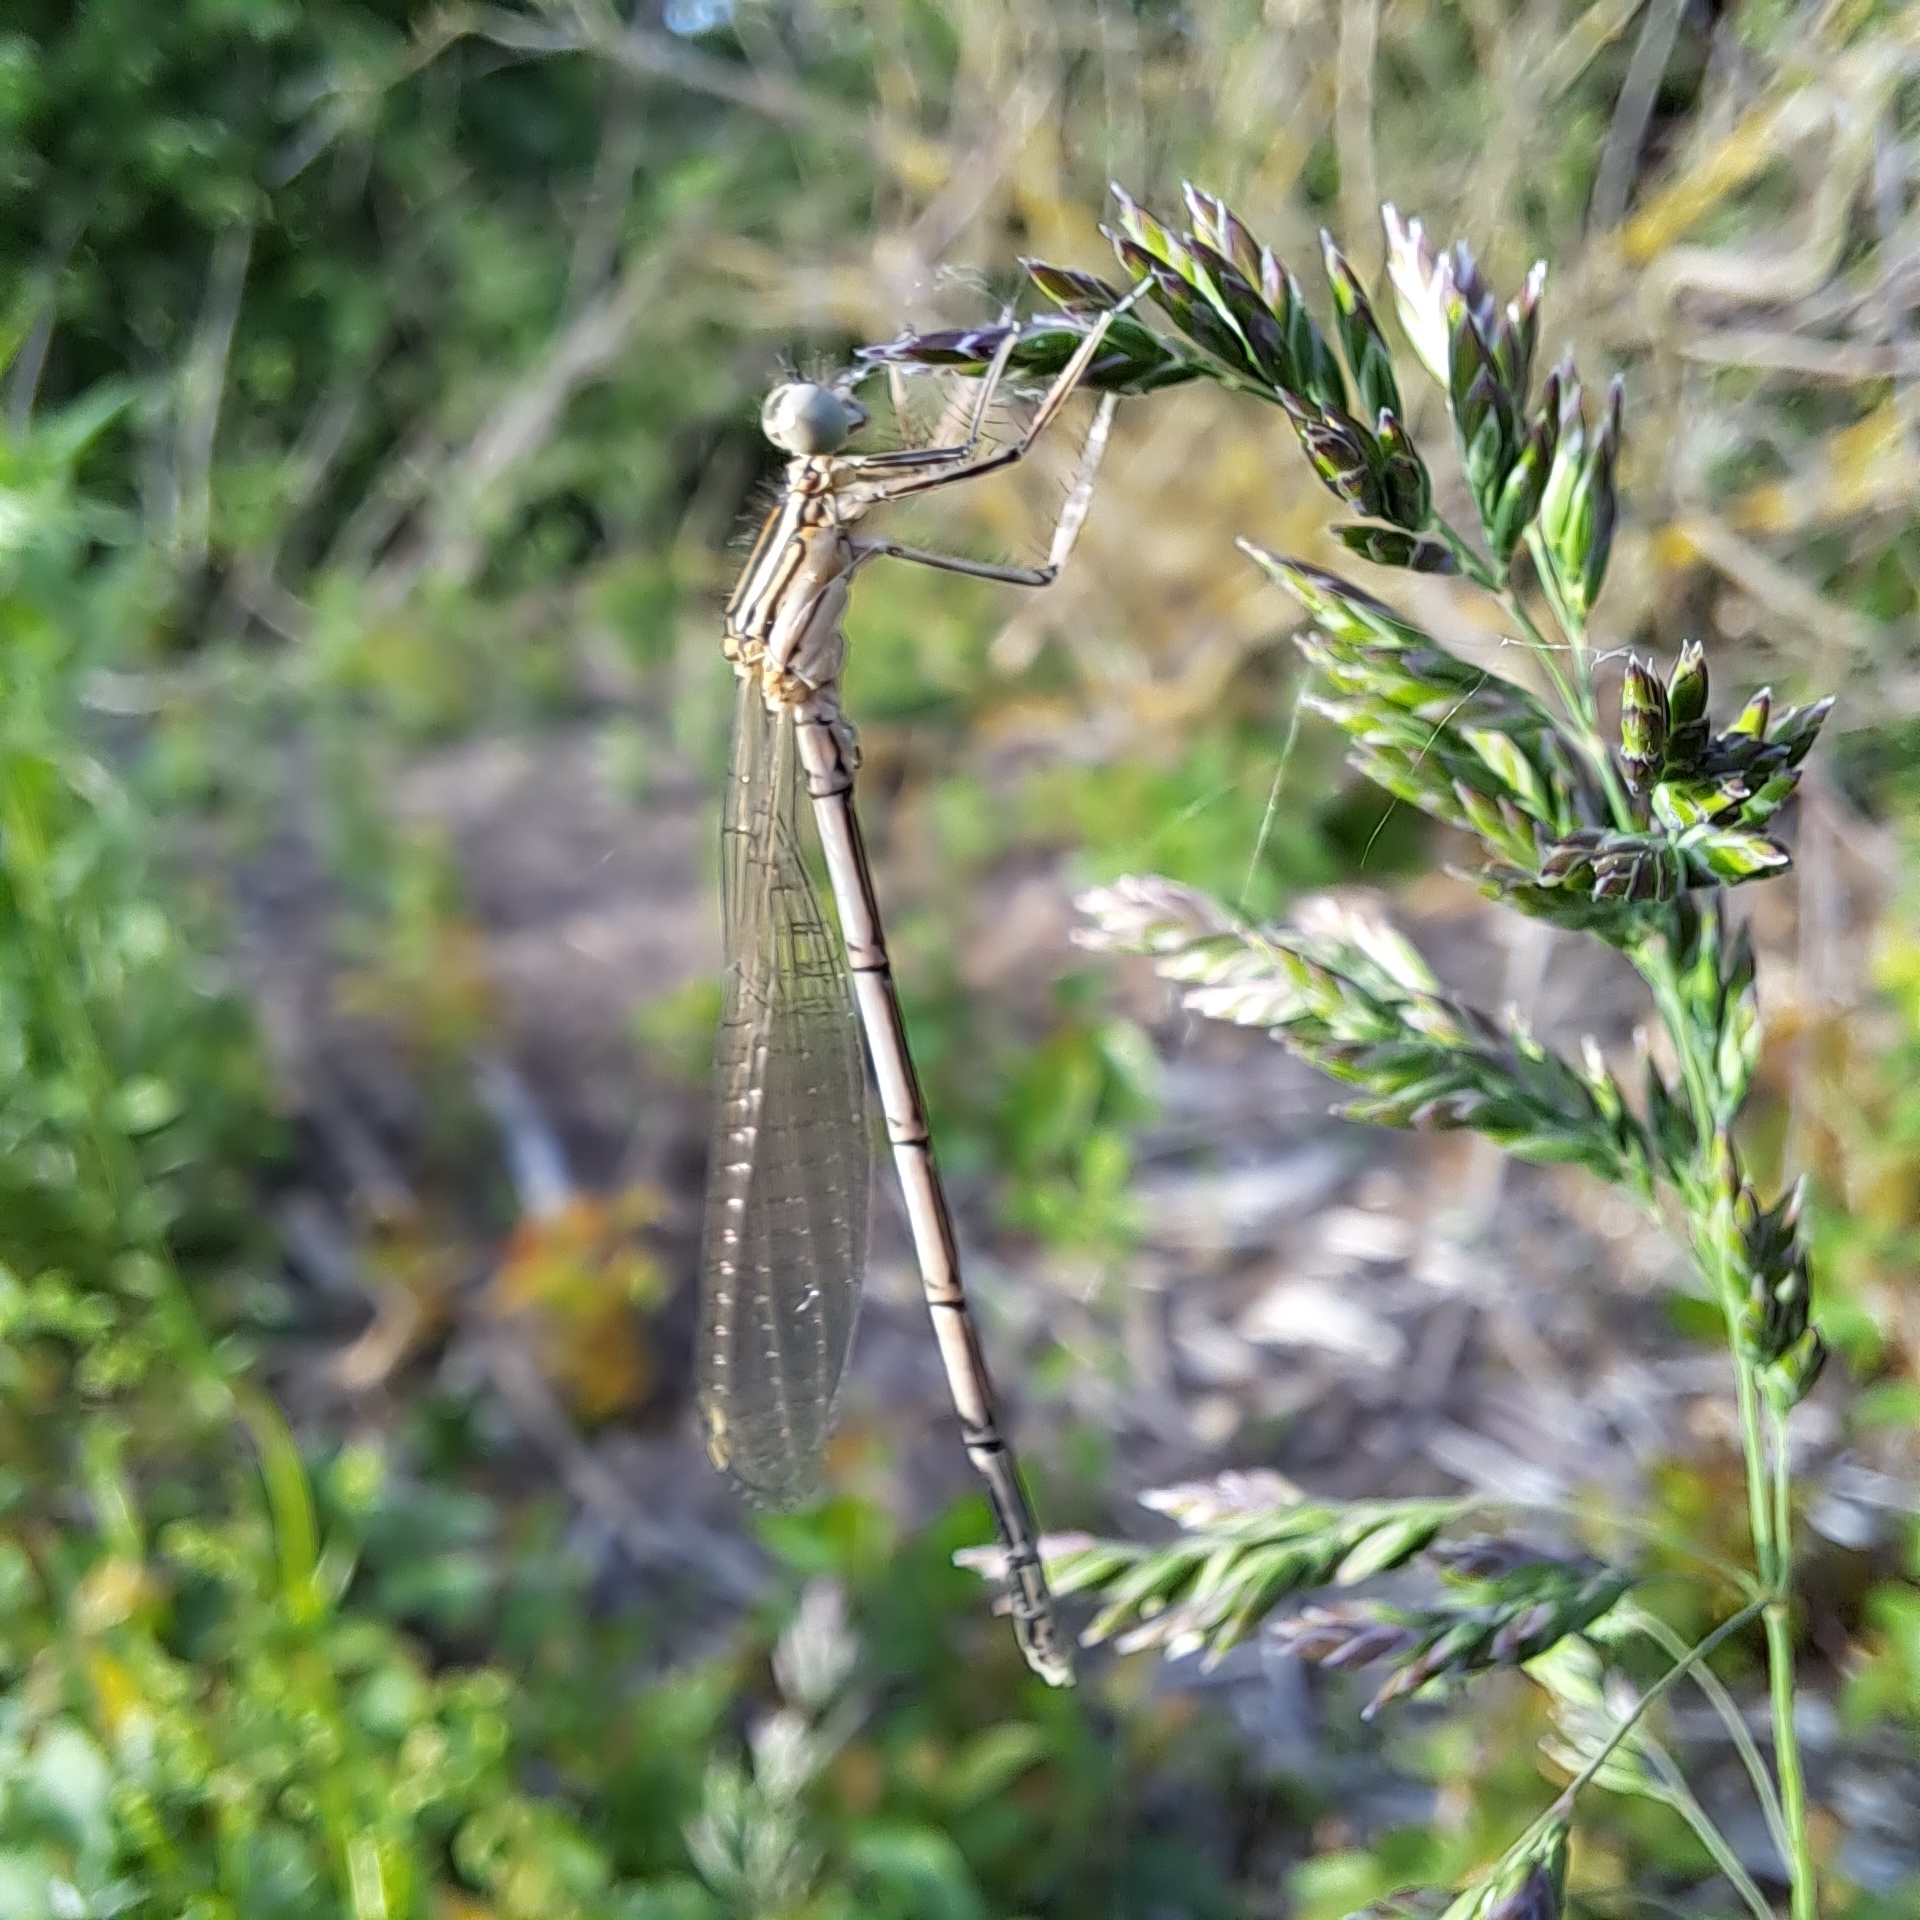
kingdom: Animalia
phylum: Arthropoda
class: Insecta
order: Odonata
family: Platycnemididae
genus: Platycnemis
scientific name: Platycnemis pennipes
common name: White-legged damselfly
